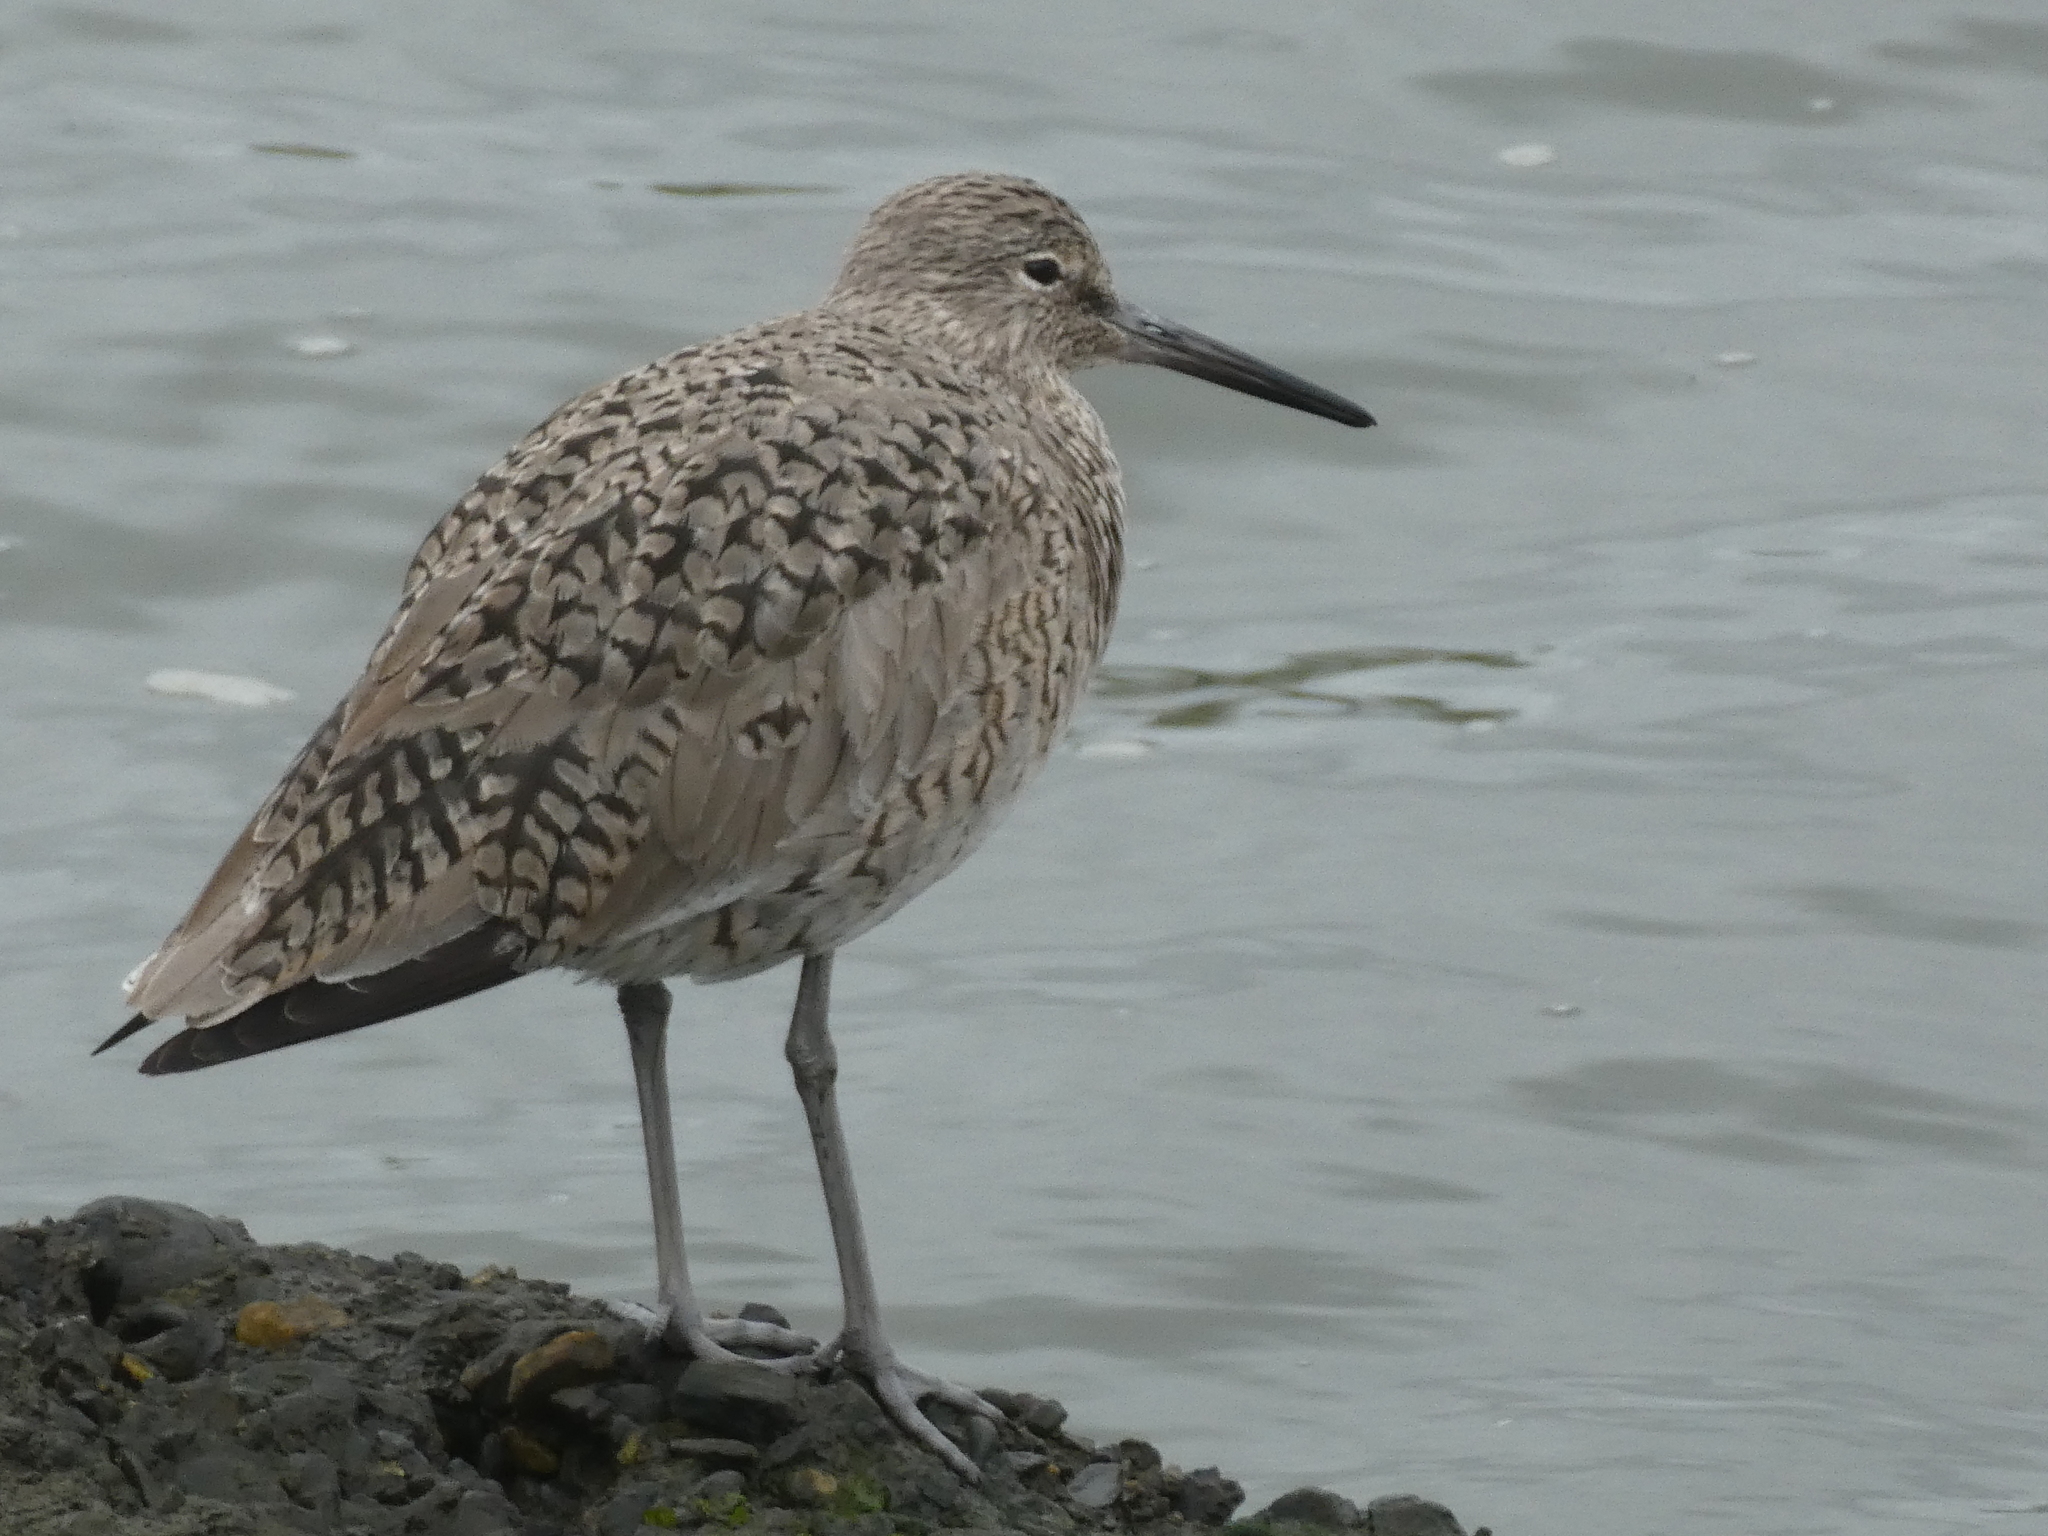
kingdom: Animalia
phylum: Chordata
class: Aves
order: Charadriiformes
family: Scolopacidae
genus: Tringa
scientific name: Tringa semipalmata
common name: Willet
